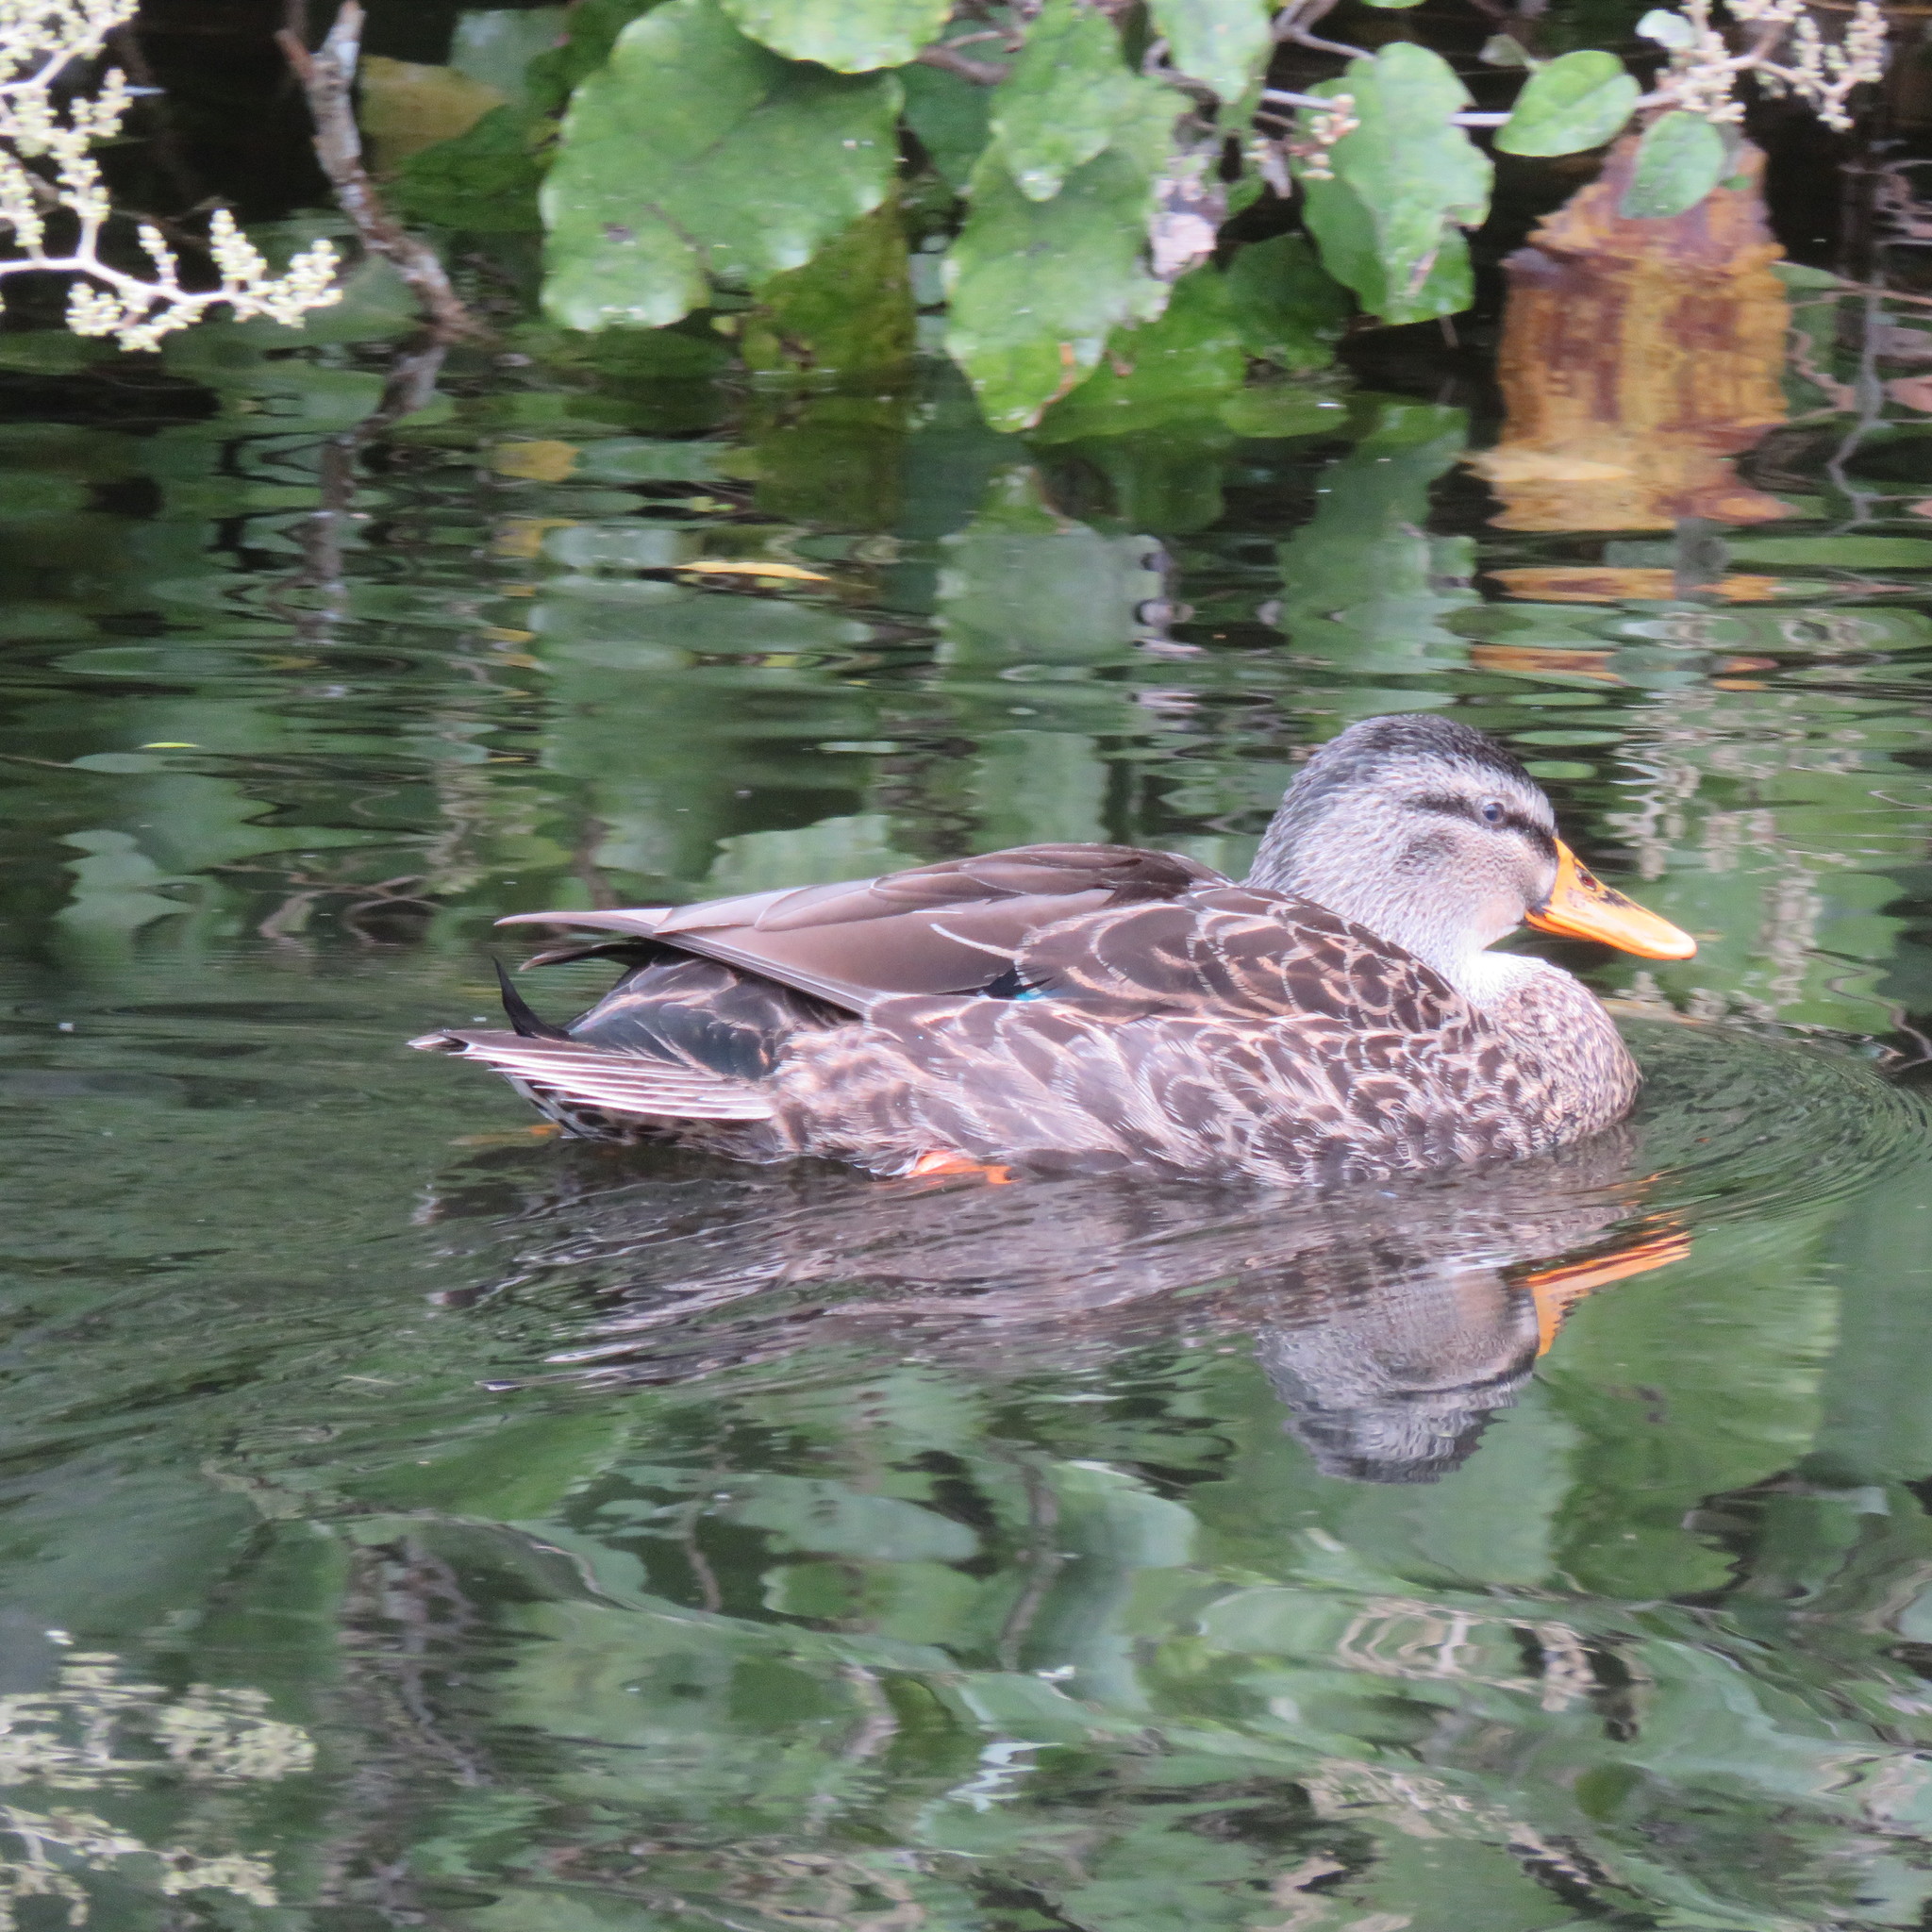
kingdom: Animalia
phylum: Chordata
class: Aves
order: Anseriformes
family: Anatidae
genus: Anas
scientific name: Anas
